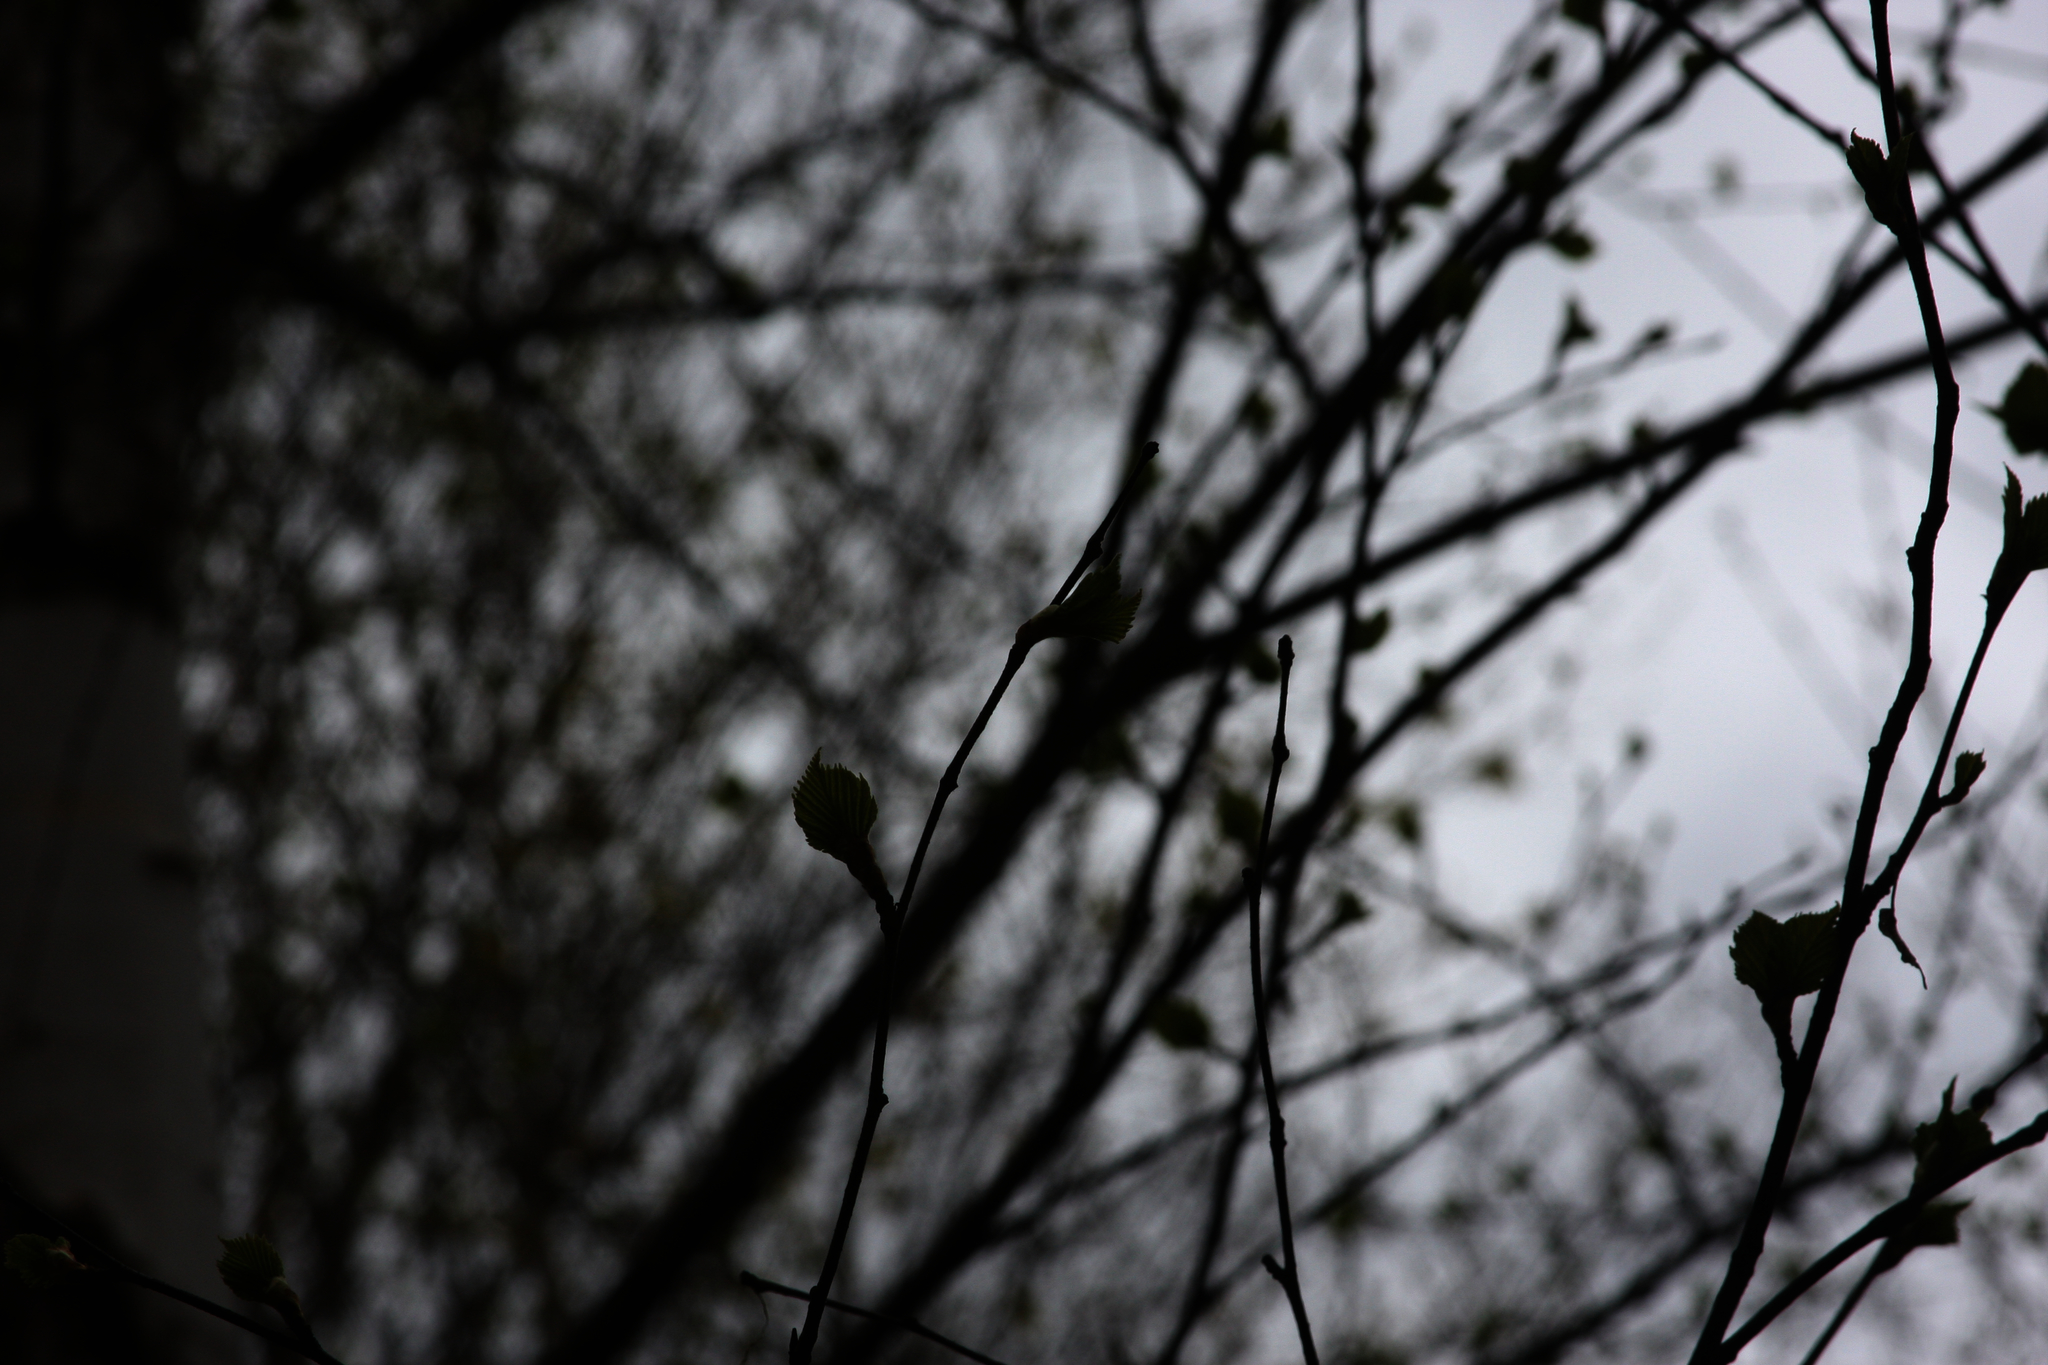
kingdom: Plantae
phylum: Tracheophyta
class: Magnoliopsida
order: Fagales
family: Betulaceae
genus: Betula
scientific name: Betula papyrifera
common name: Paper birch
